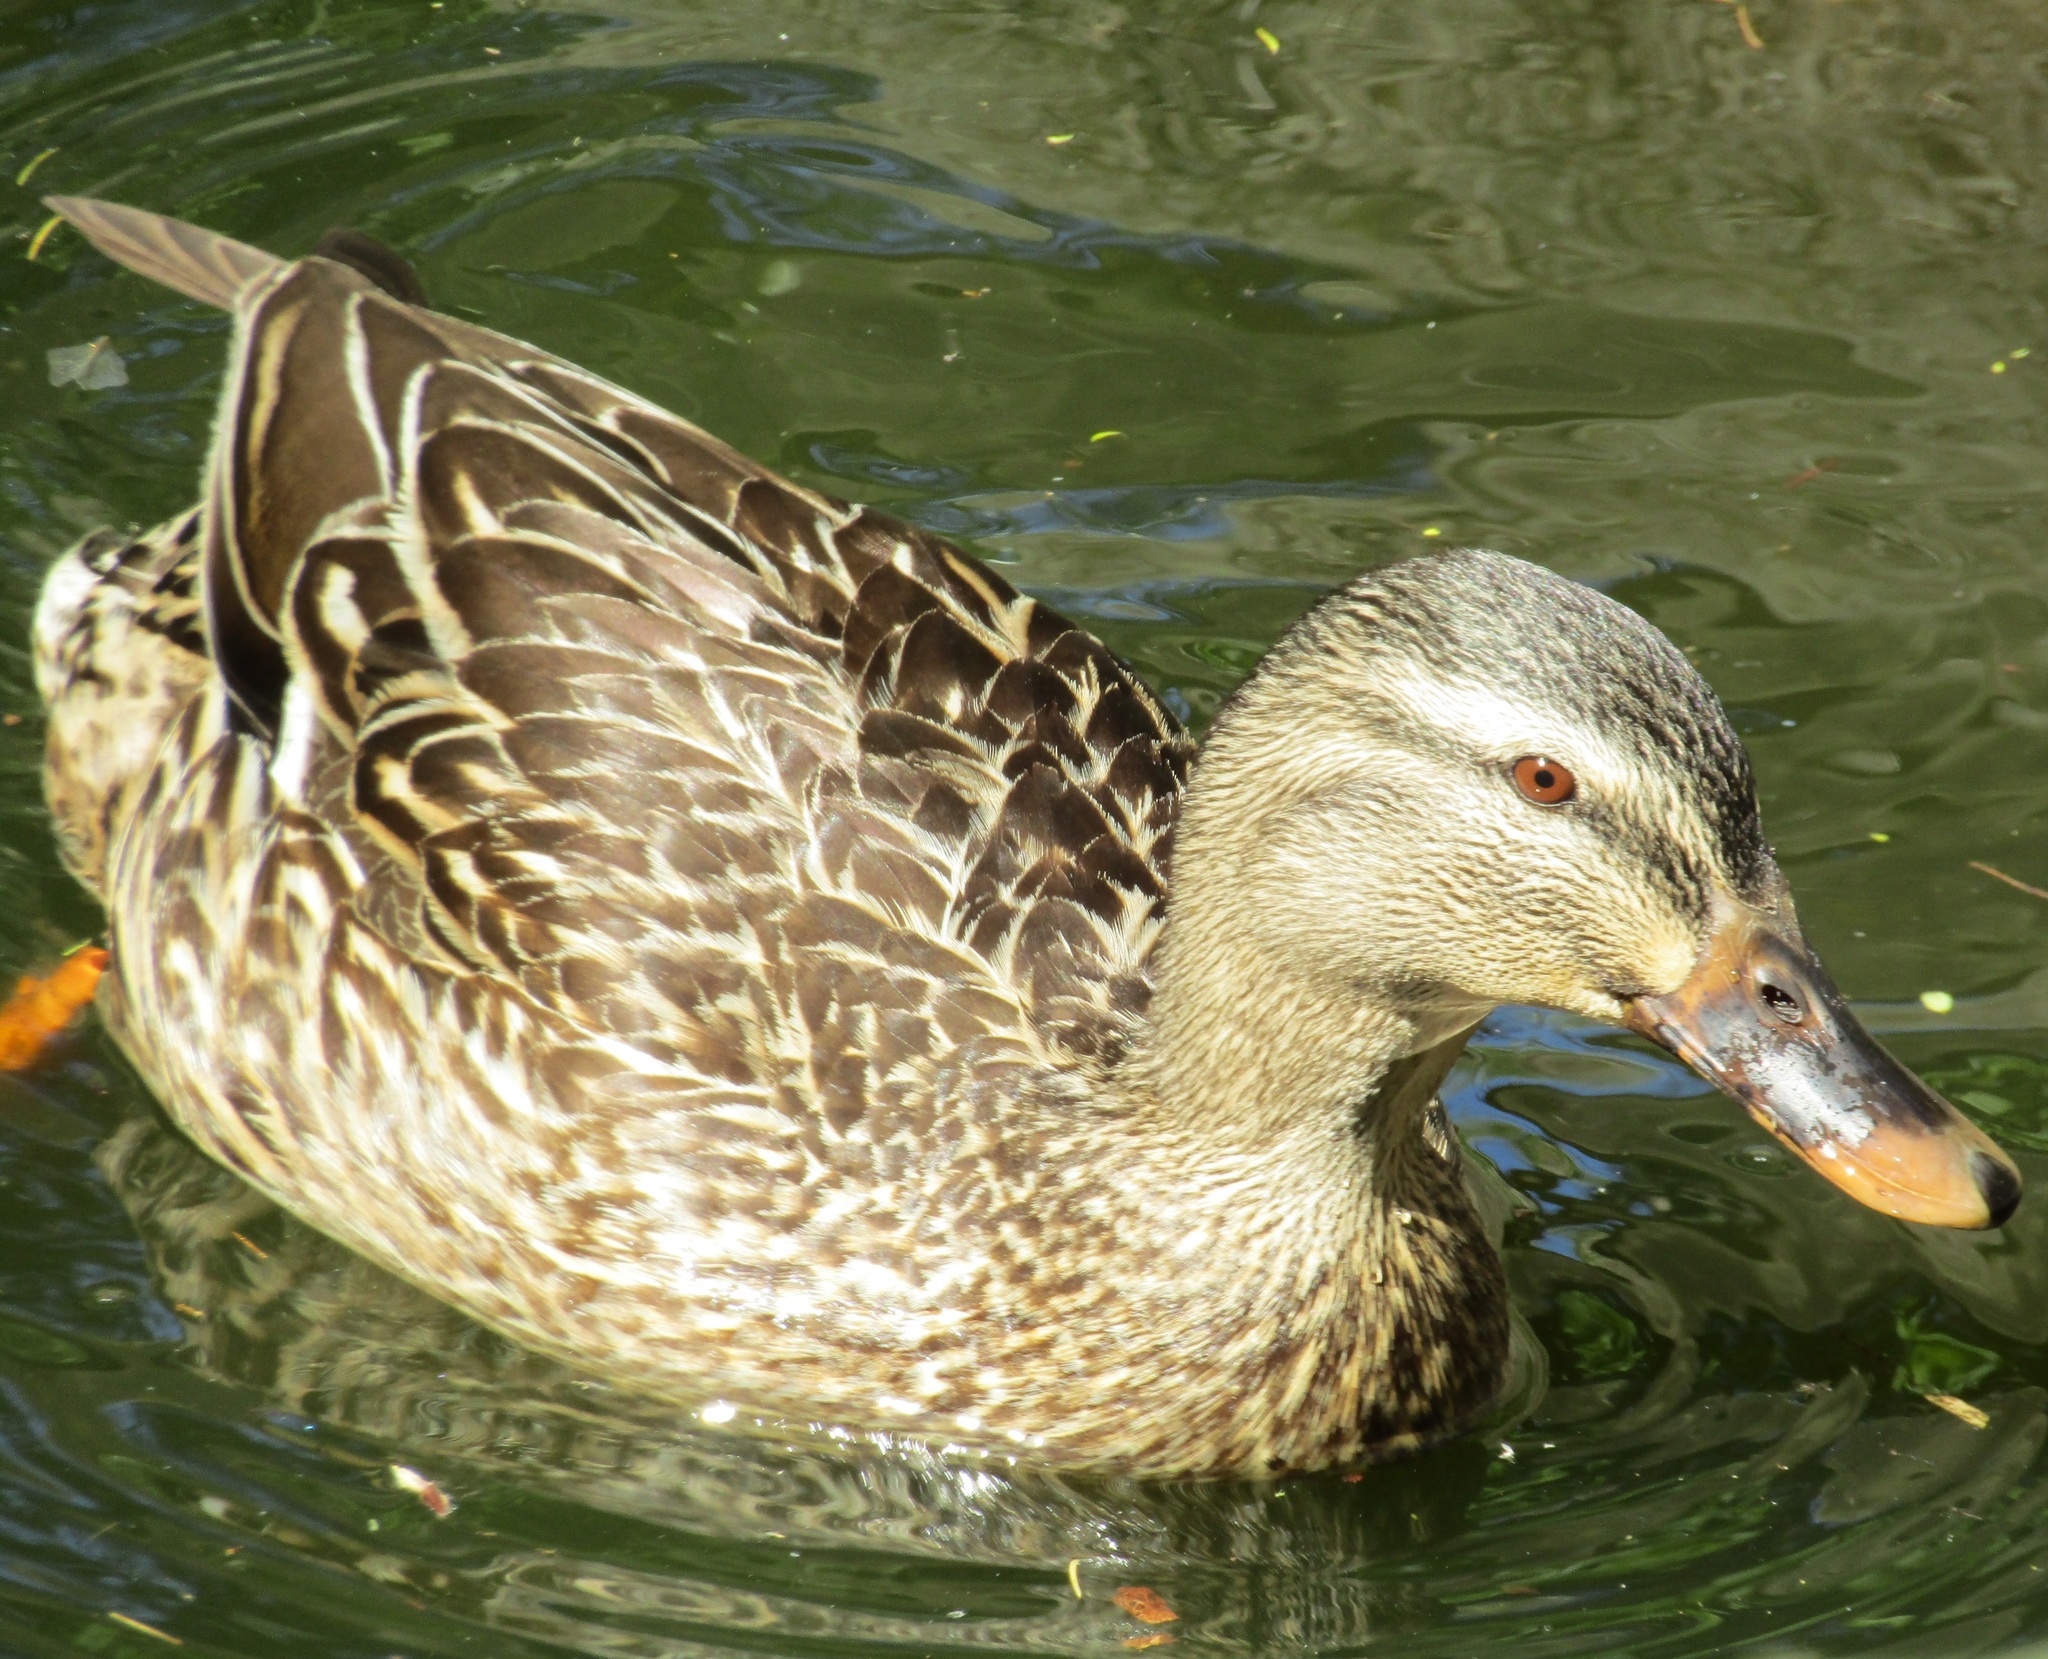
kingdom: Animalia
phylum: Chordata
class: Aves
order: Anseriformes
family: Anatidae
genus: Anas
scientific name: Anas
